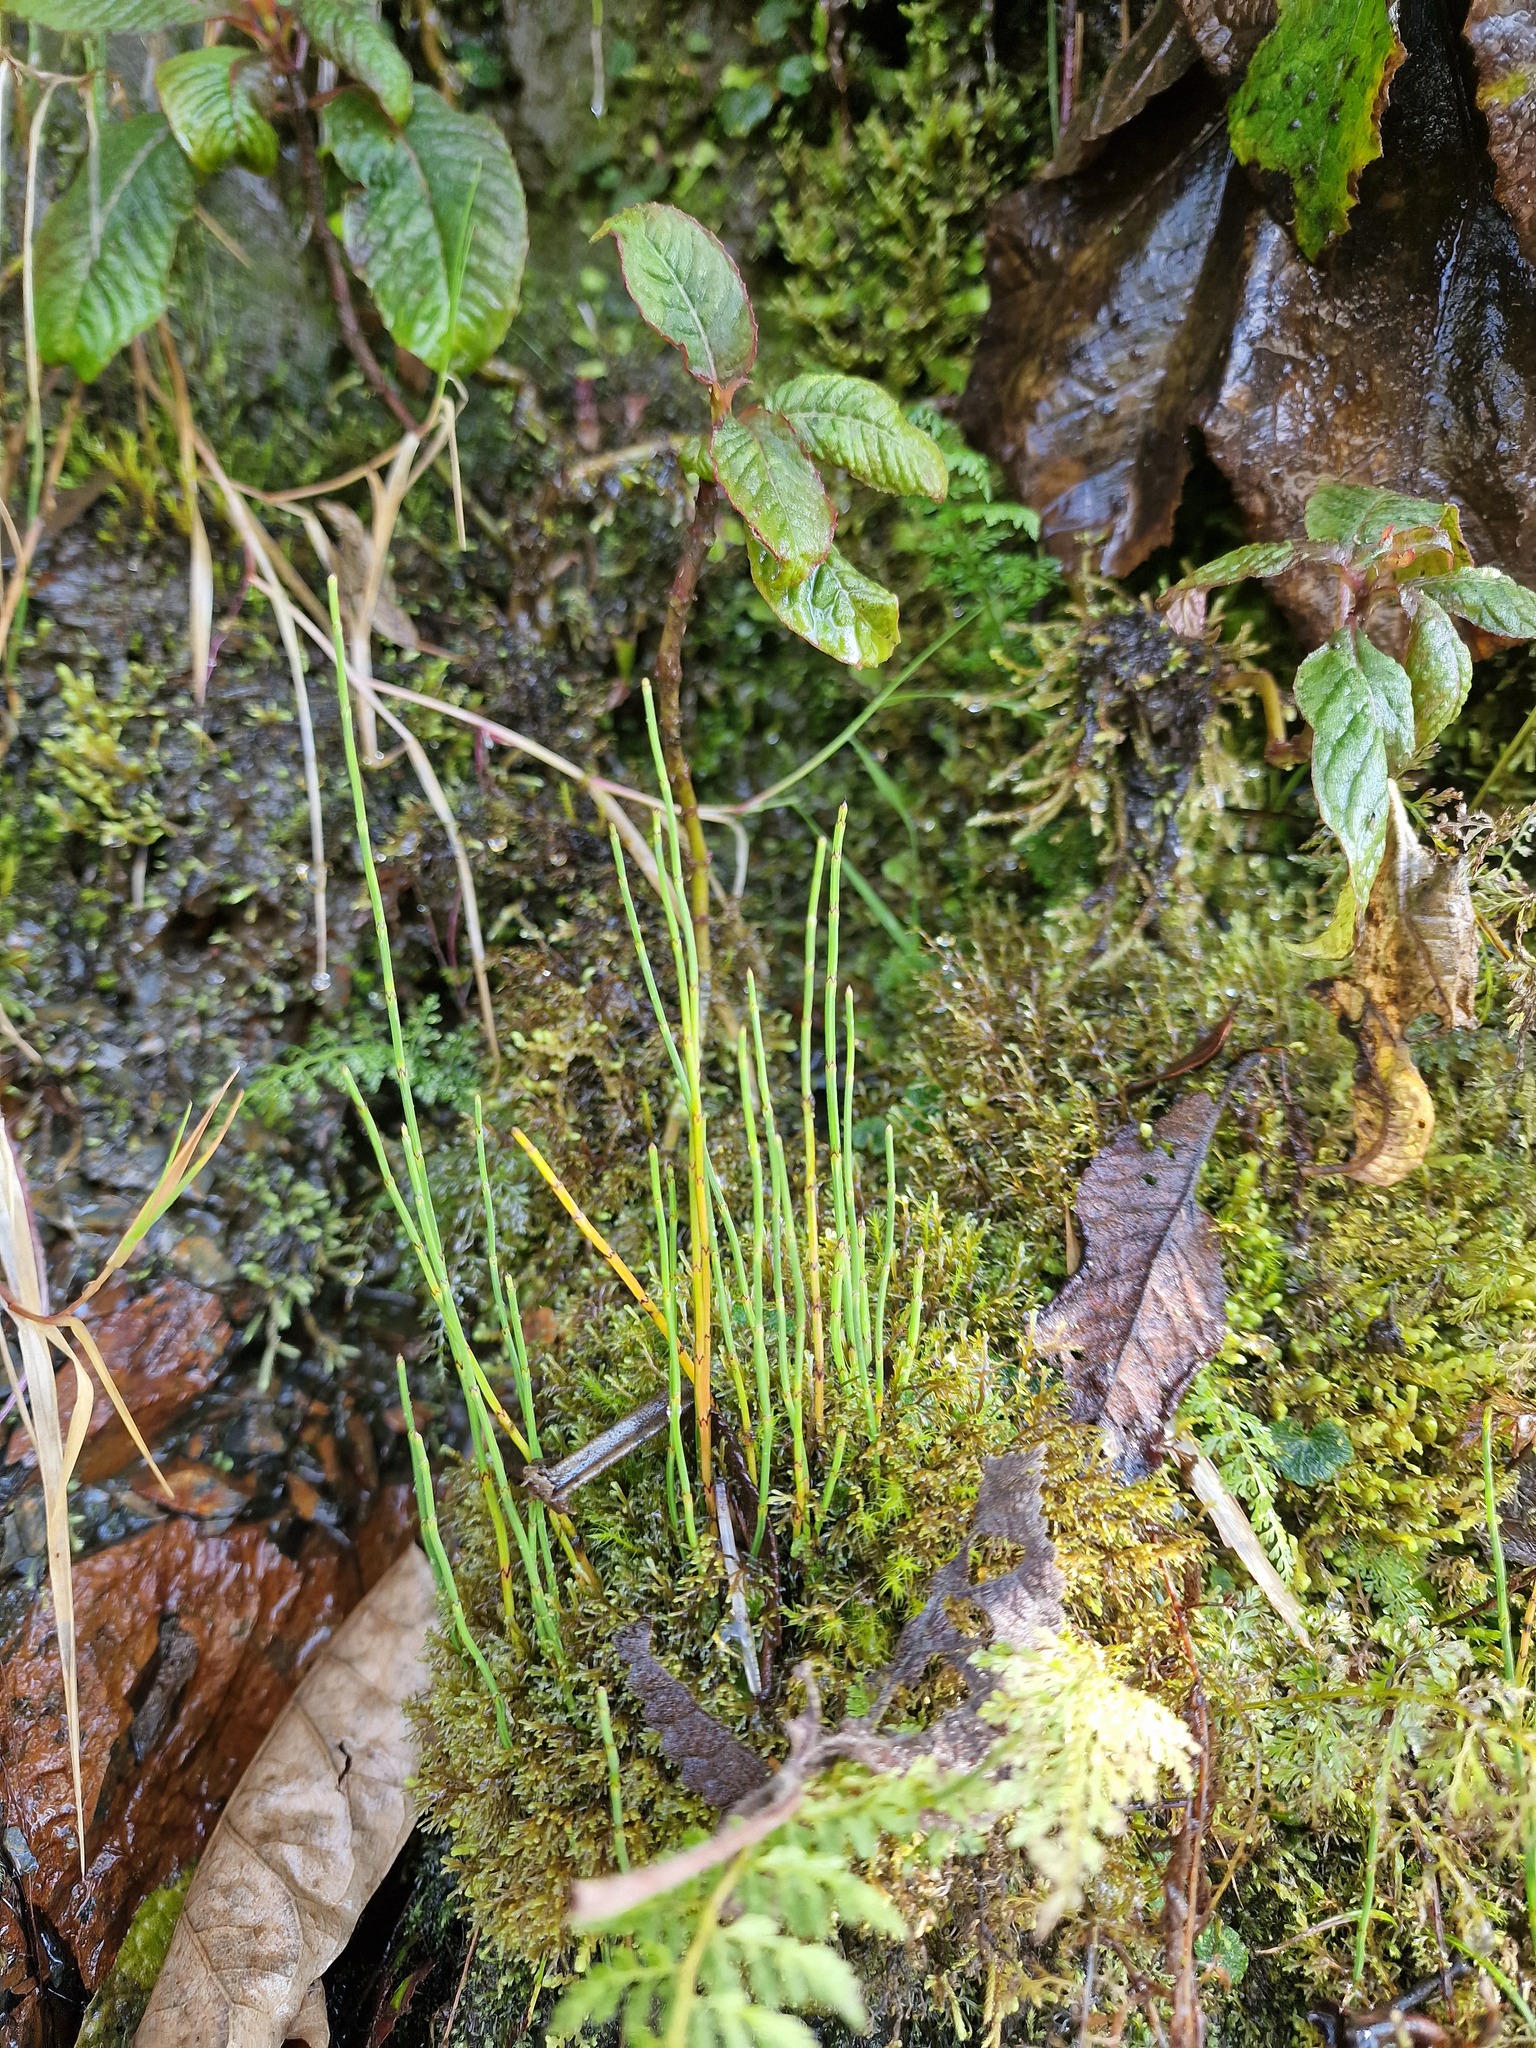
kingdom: Plantae
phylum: Tracheophyta
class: Polypodiopsida
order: Equisetales
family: Equisetaceae
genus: Equisetum
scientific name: Equisetum bogotense
